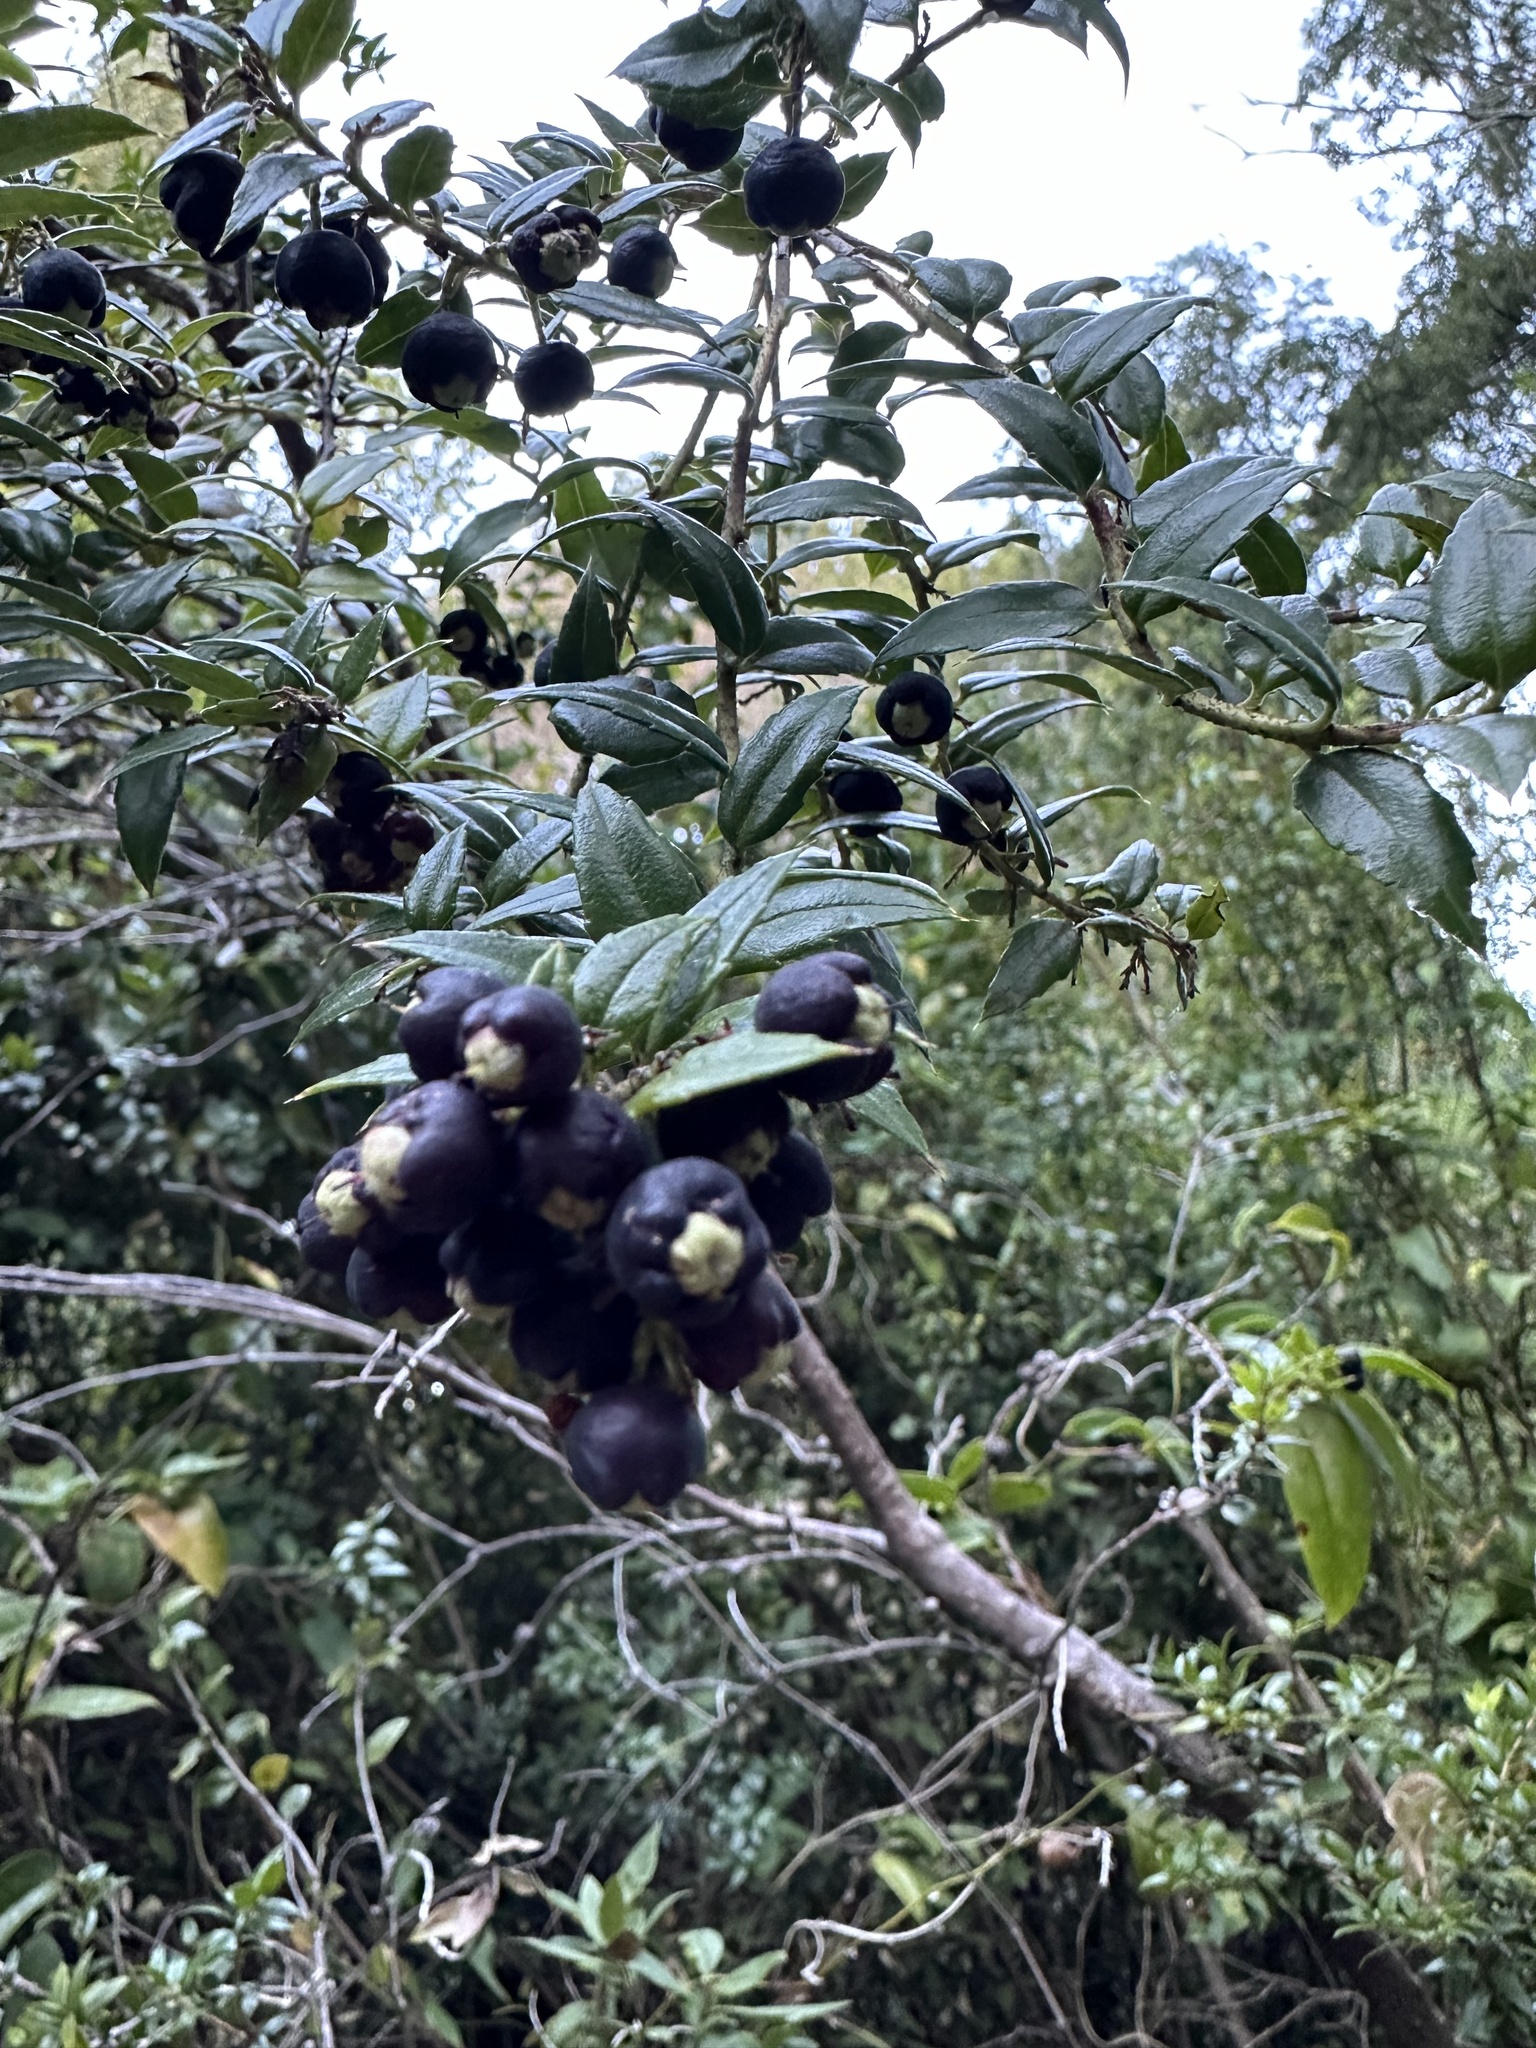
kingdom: Plantae
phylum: Tracheophyta
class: Magnoliopsida
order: Ericales
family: Ericaceae
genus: Gaultheria
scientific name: Gaultheria phillyreifolia
